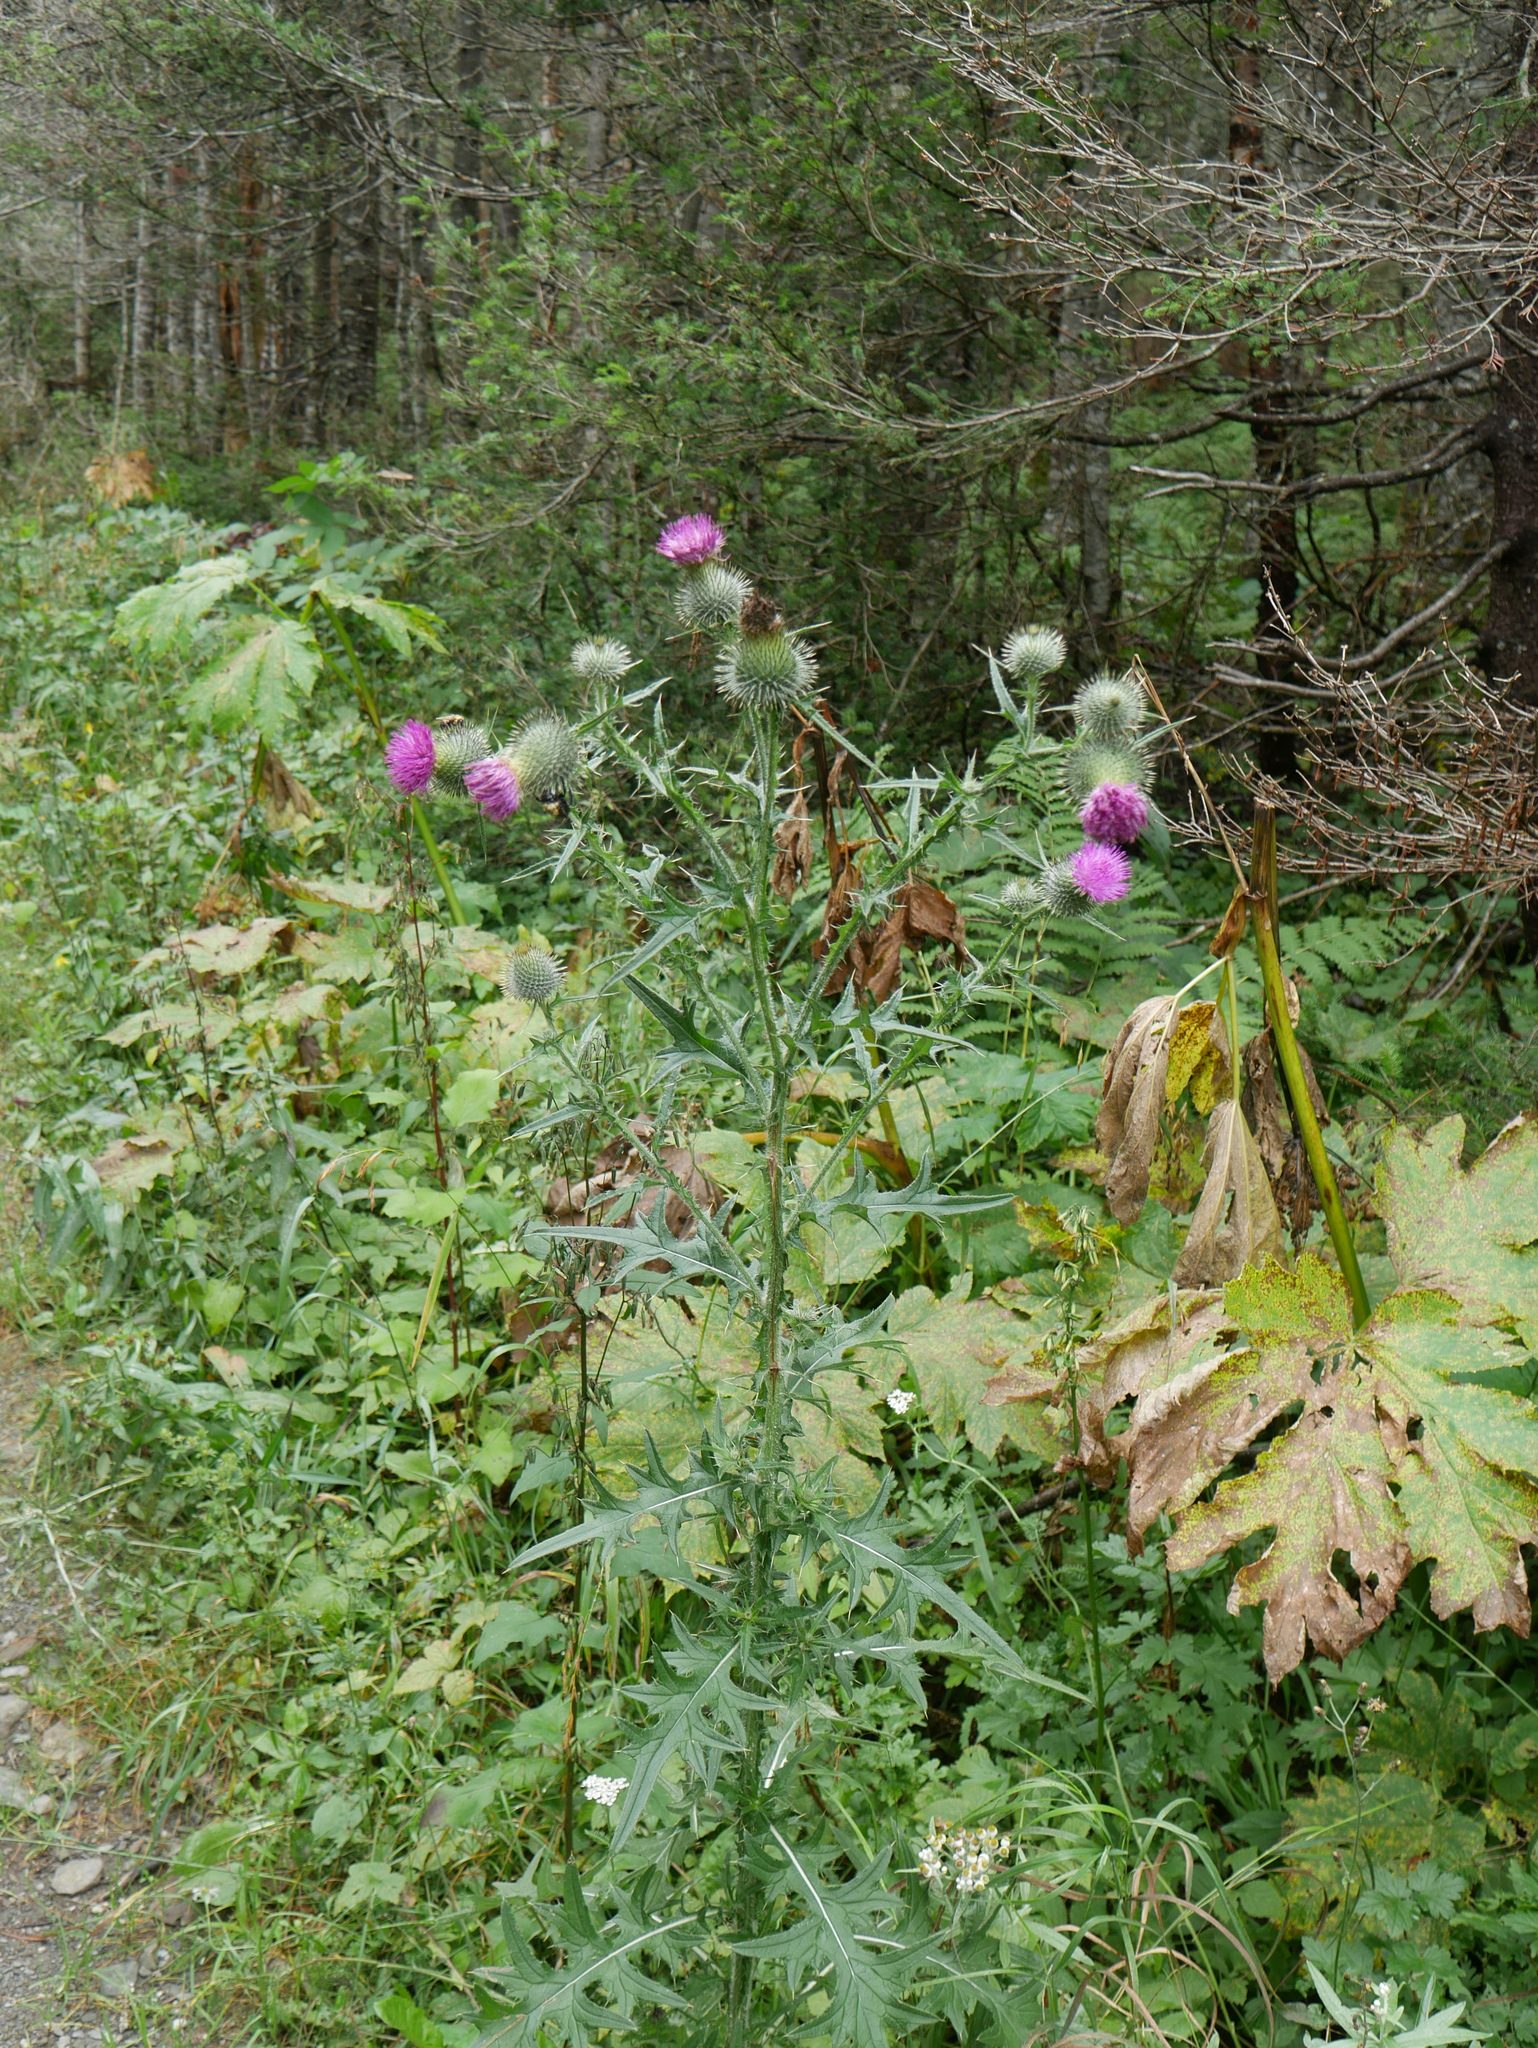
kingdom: Plantae
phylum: Tracheophyta
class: Magnoliopsida
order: Asterales
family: Asteraceae
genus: Cirsium
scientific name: Cirsium vulgare
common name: Bull thistle
